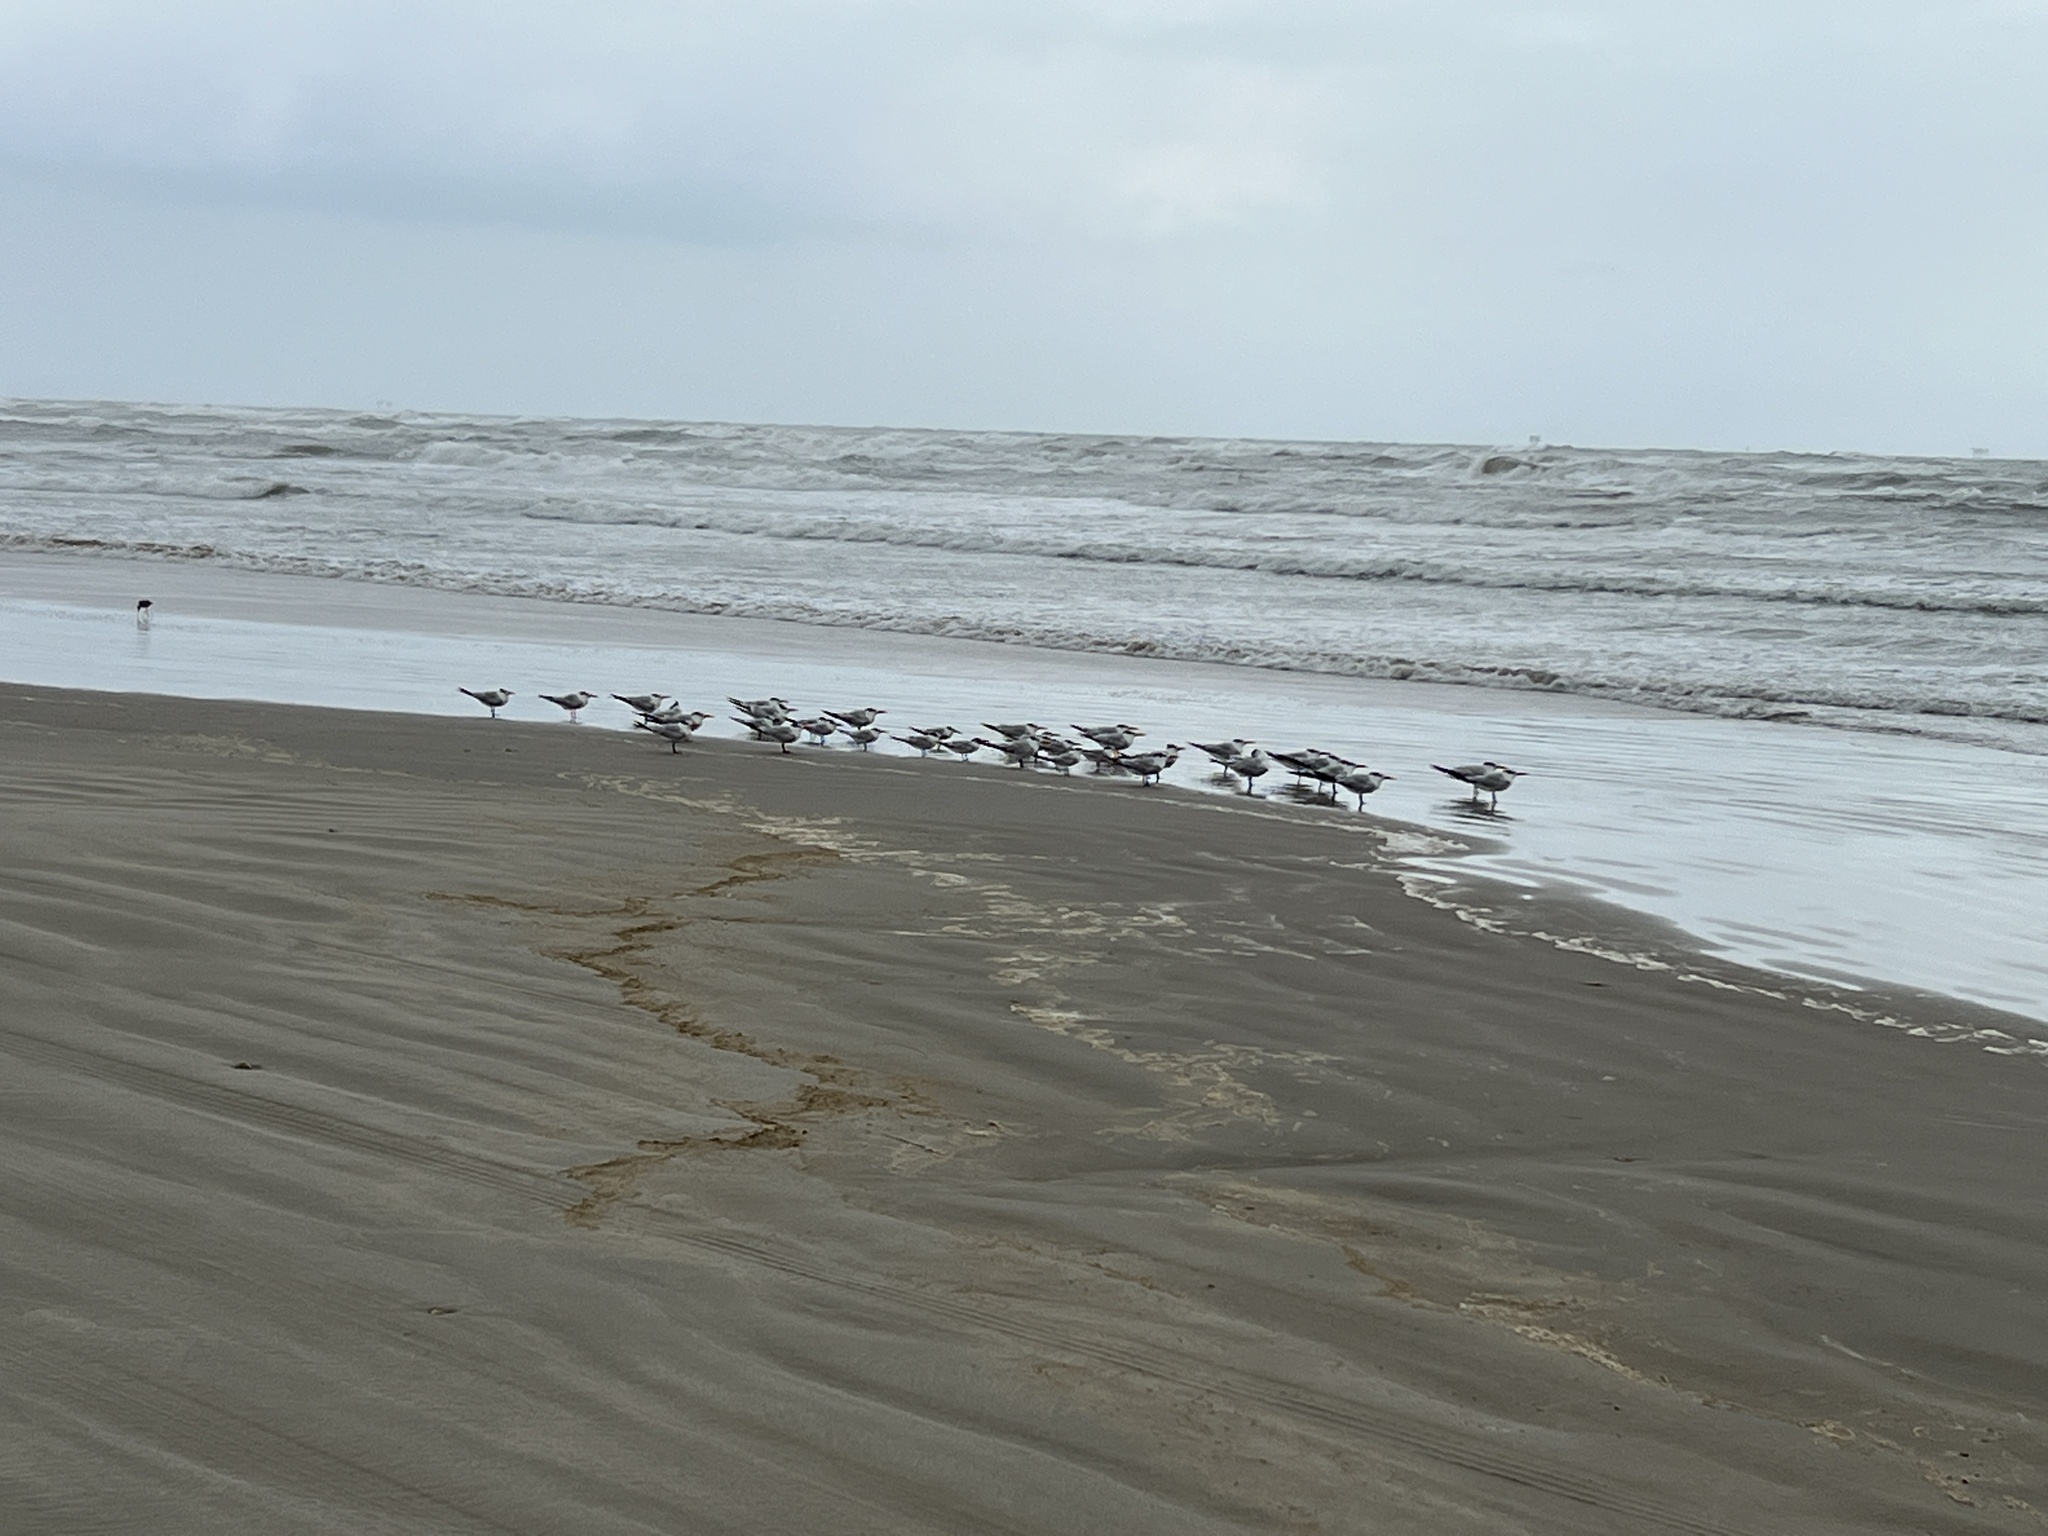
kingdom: Animalia
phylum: Chordata
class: Aves
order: Charadriiformes
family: Laridae
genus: Thalasseus
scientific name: Thalasseus maximus
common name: Royal tern
